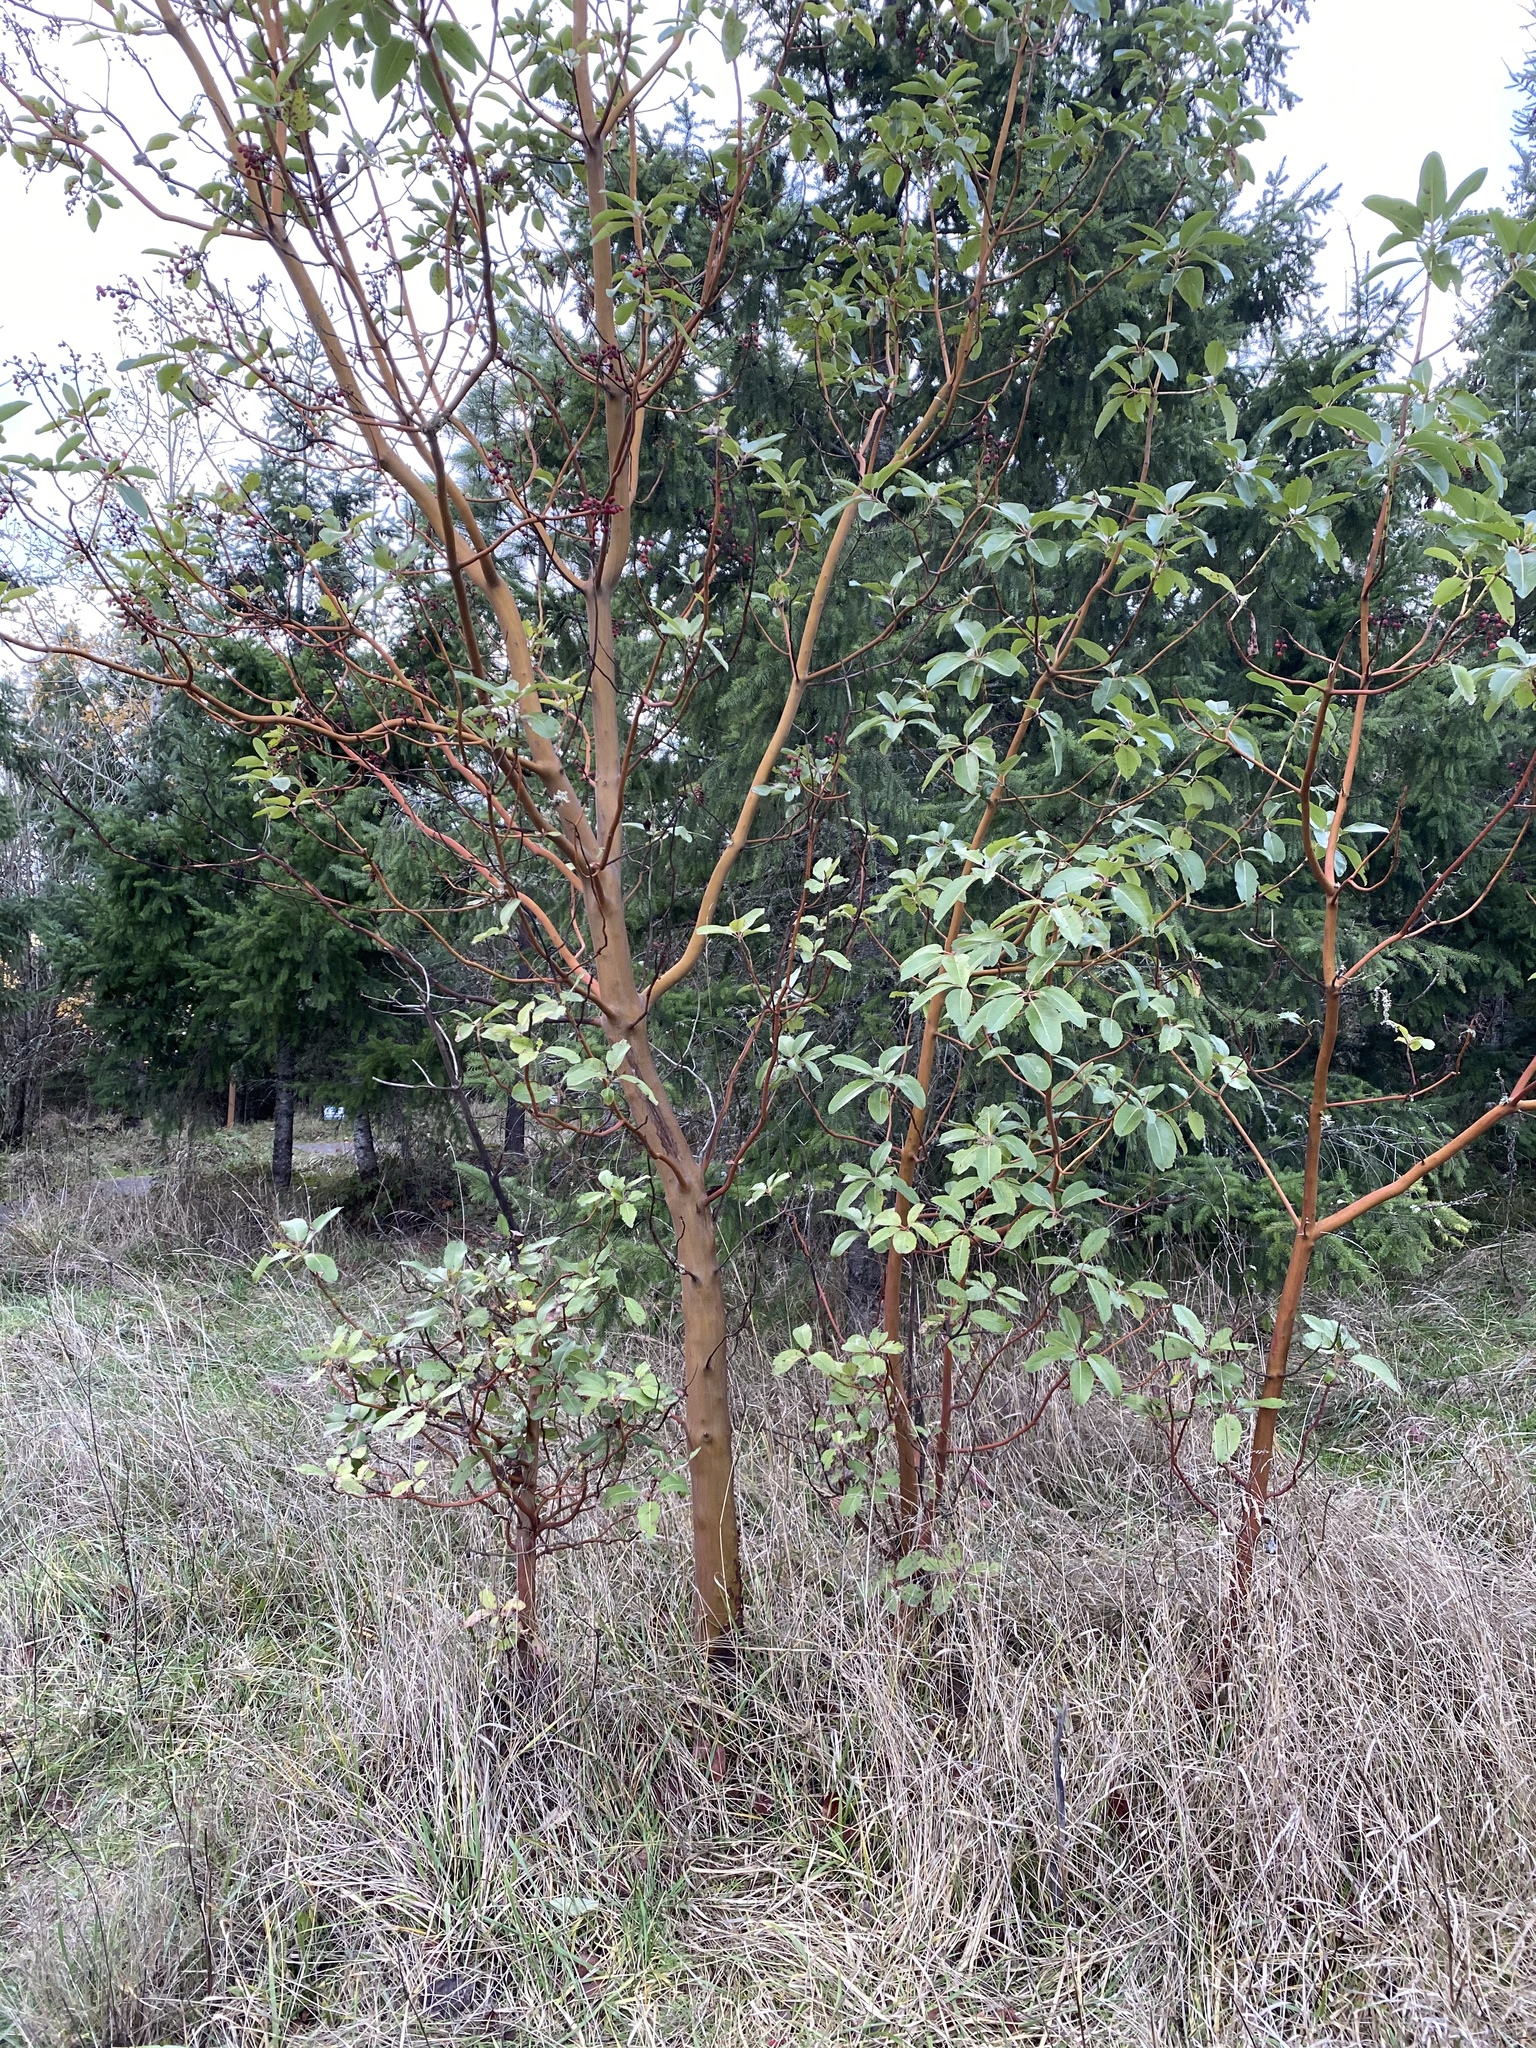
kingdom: Plantae
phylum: Tracheophyta
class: Magnoliopsida
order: Ericales
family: Ericaceae
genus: Arbutus
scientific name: Arbutus menziesii
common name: Pacific madrone
